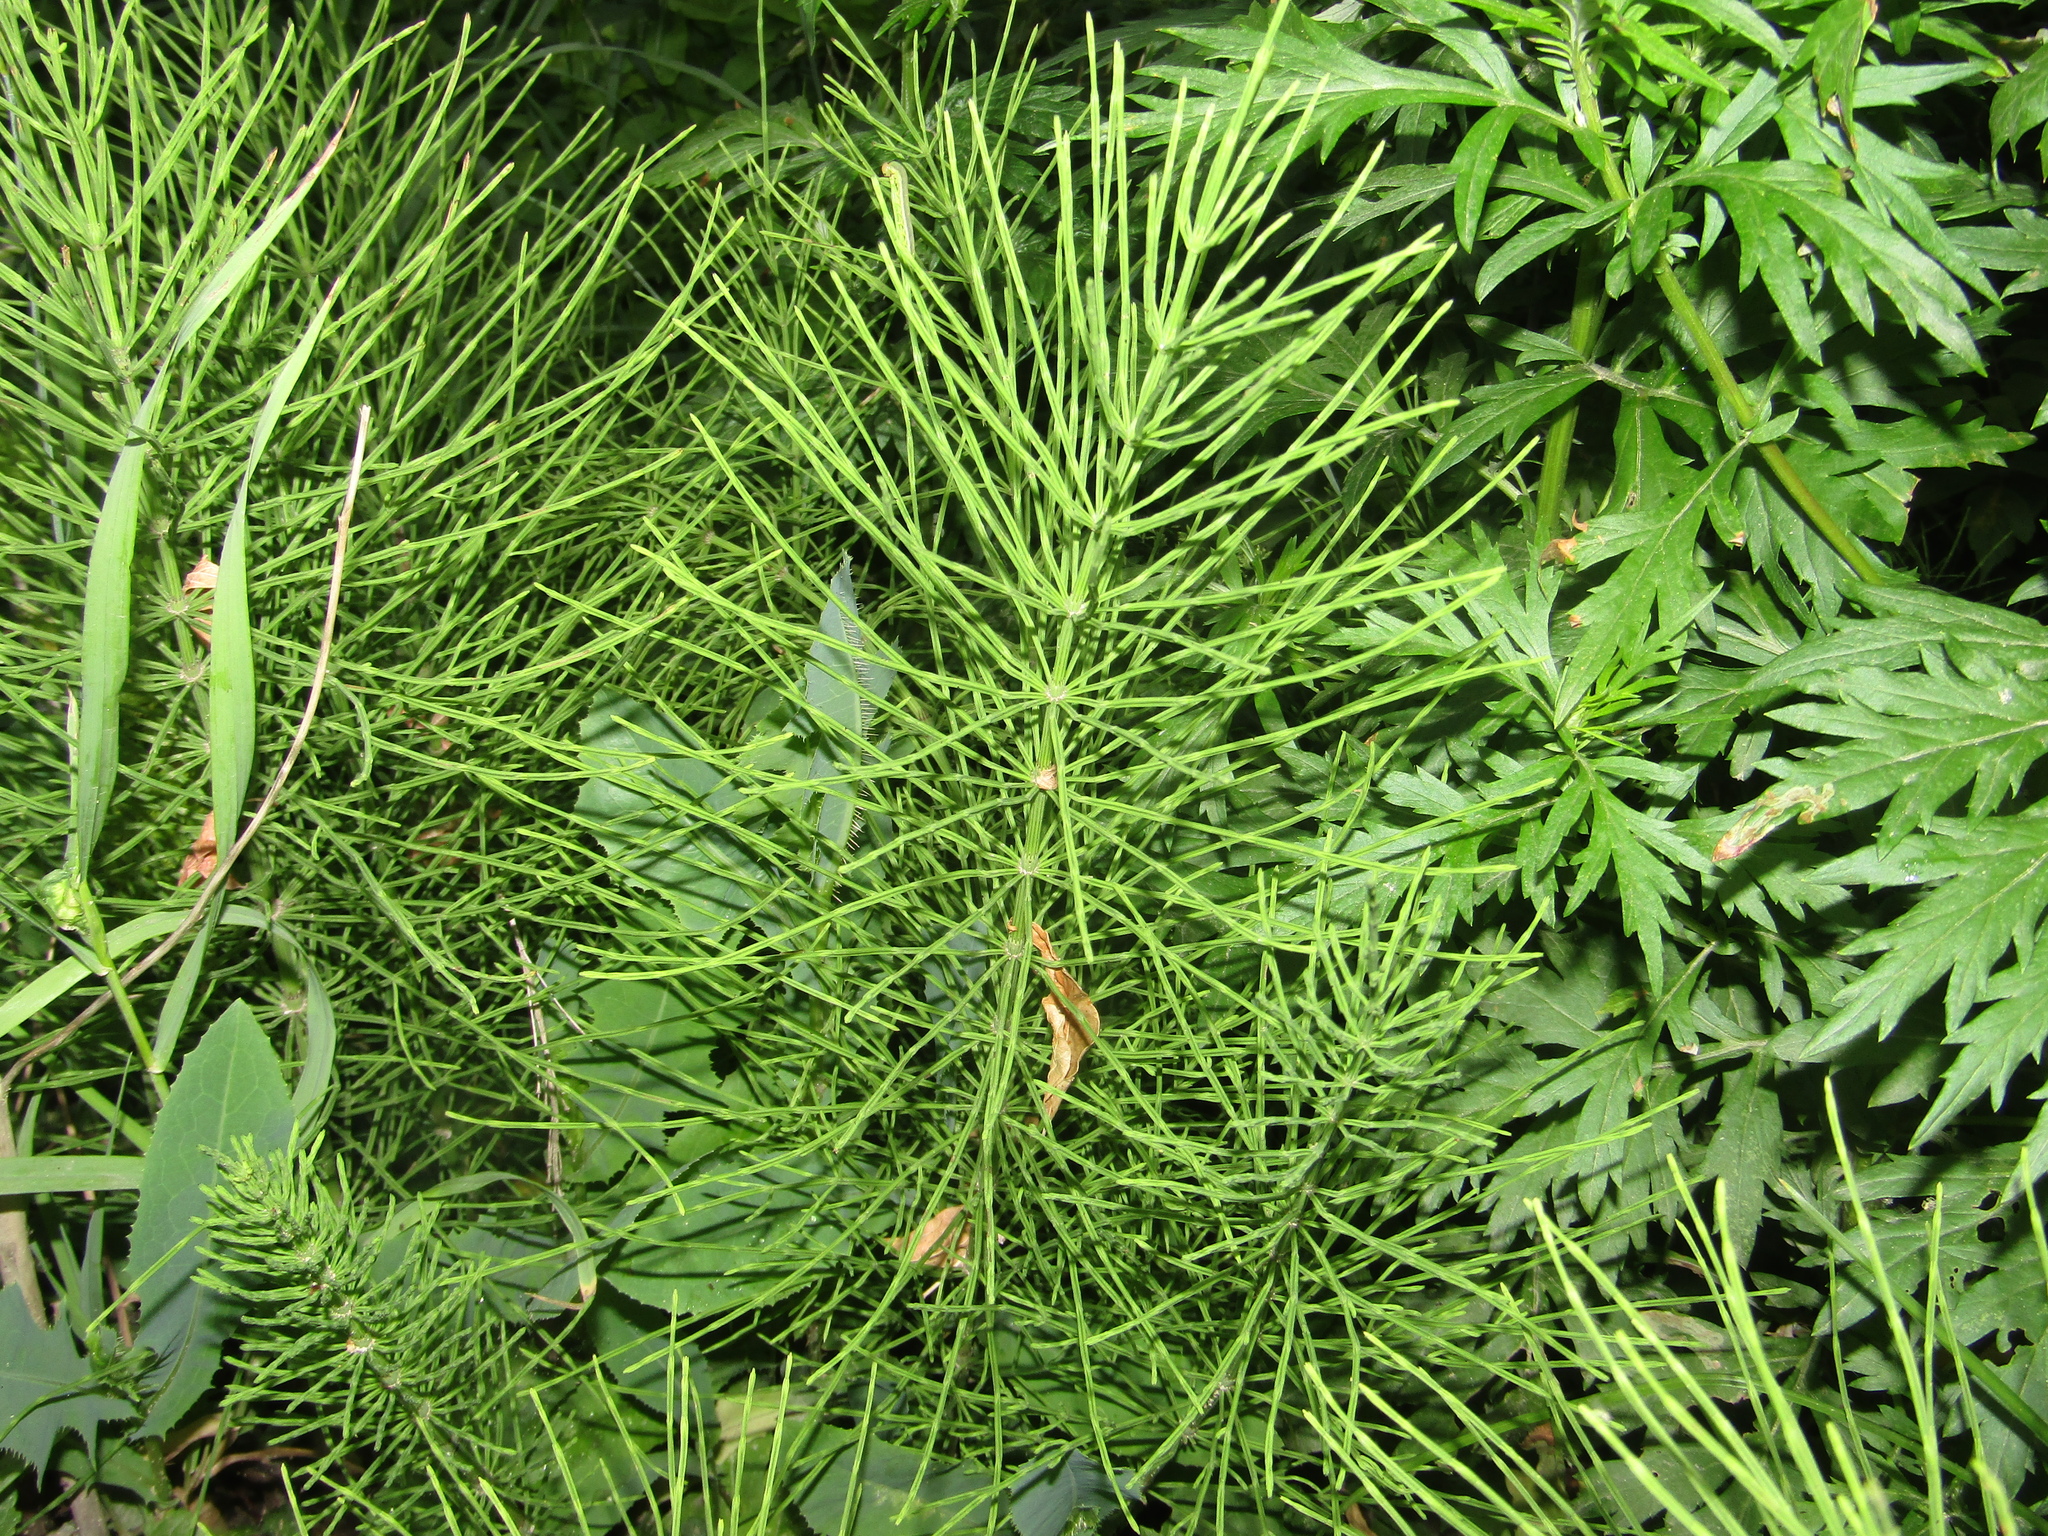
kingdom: Plantae
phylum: Tracheophyta
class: Polypodiopsida
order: Equisetales
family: Equisetaceae
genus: Equisetum
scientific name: Equisetum arvense
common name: Field horsetail
